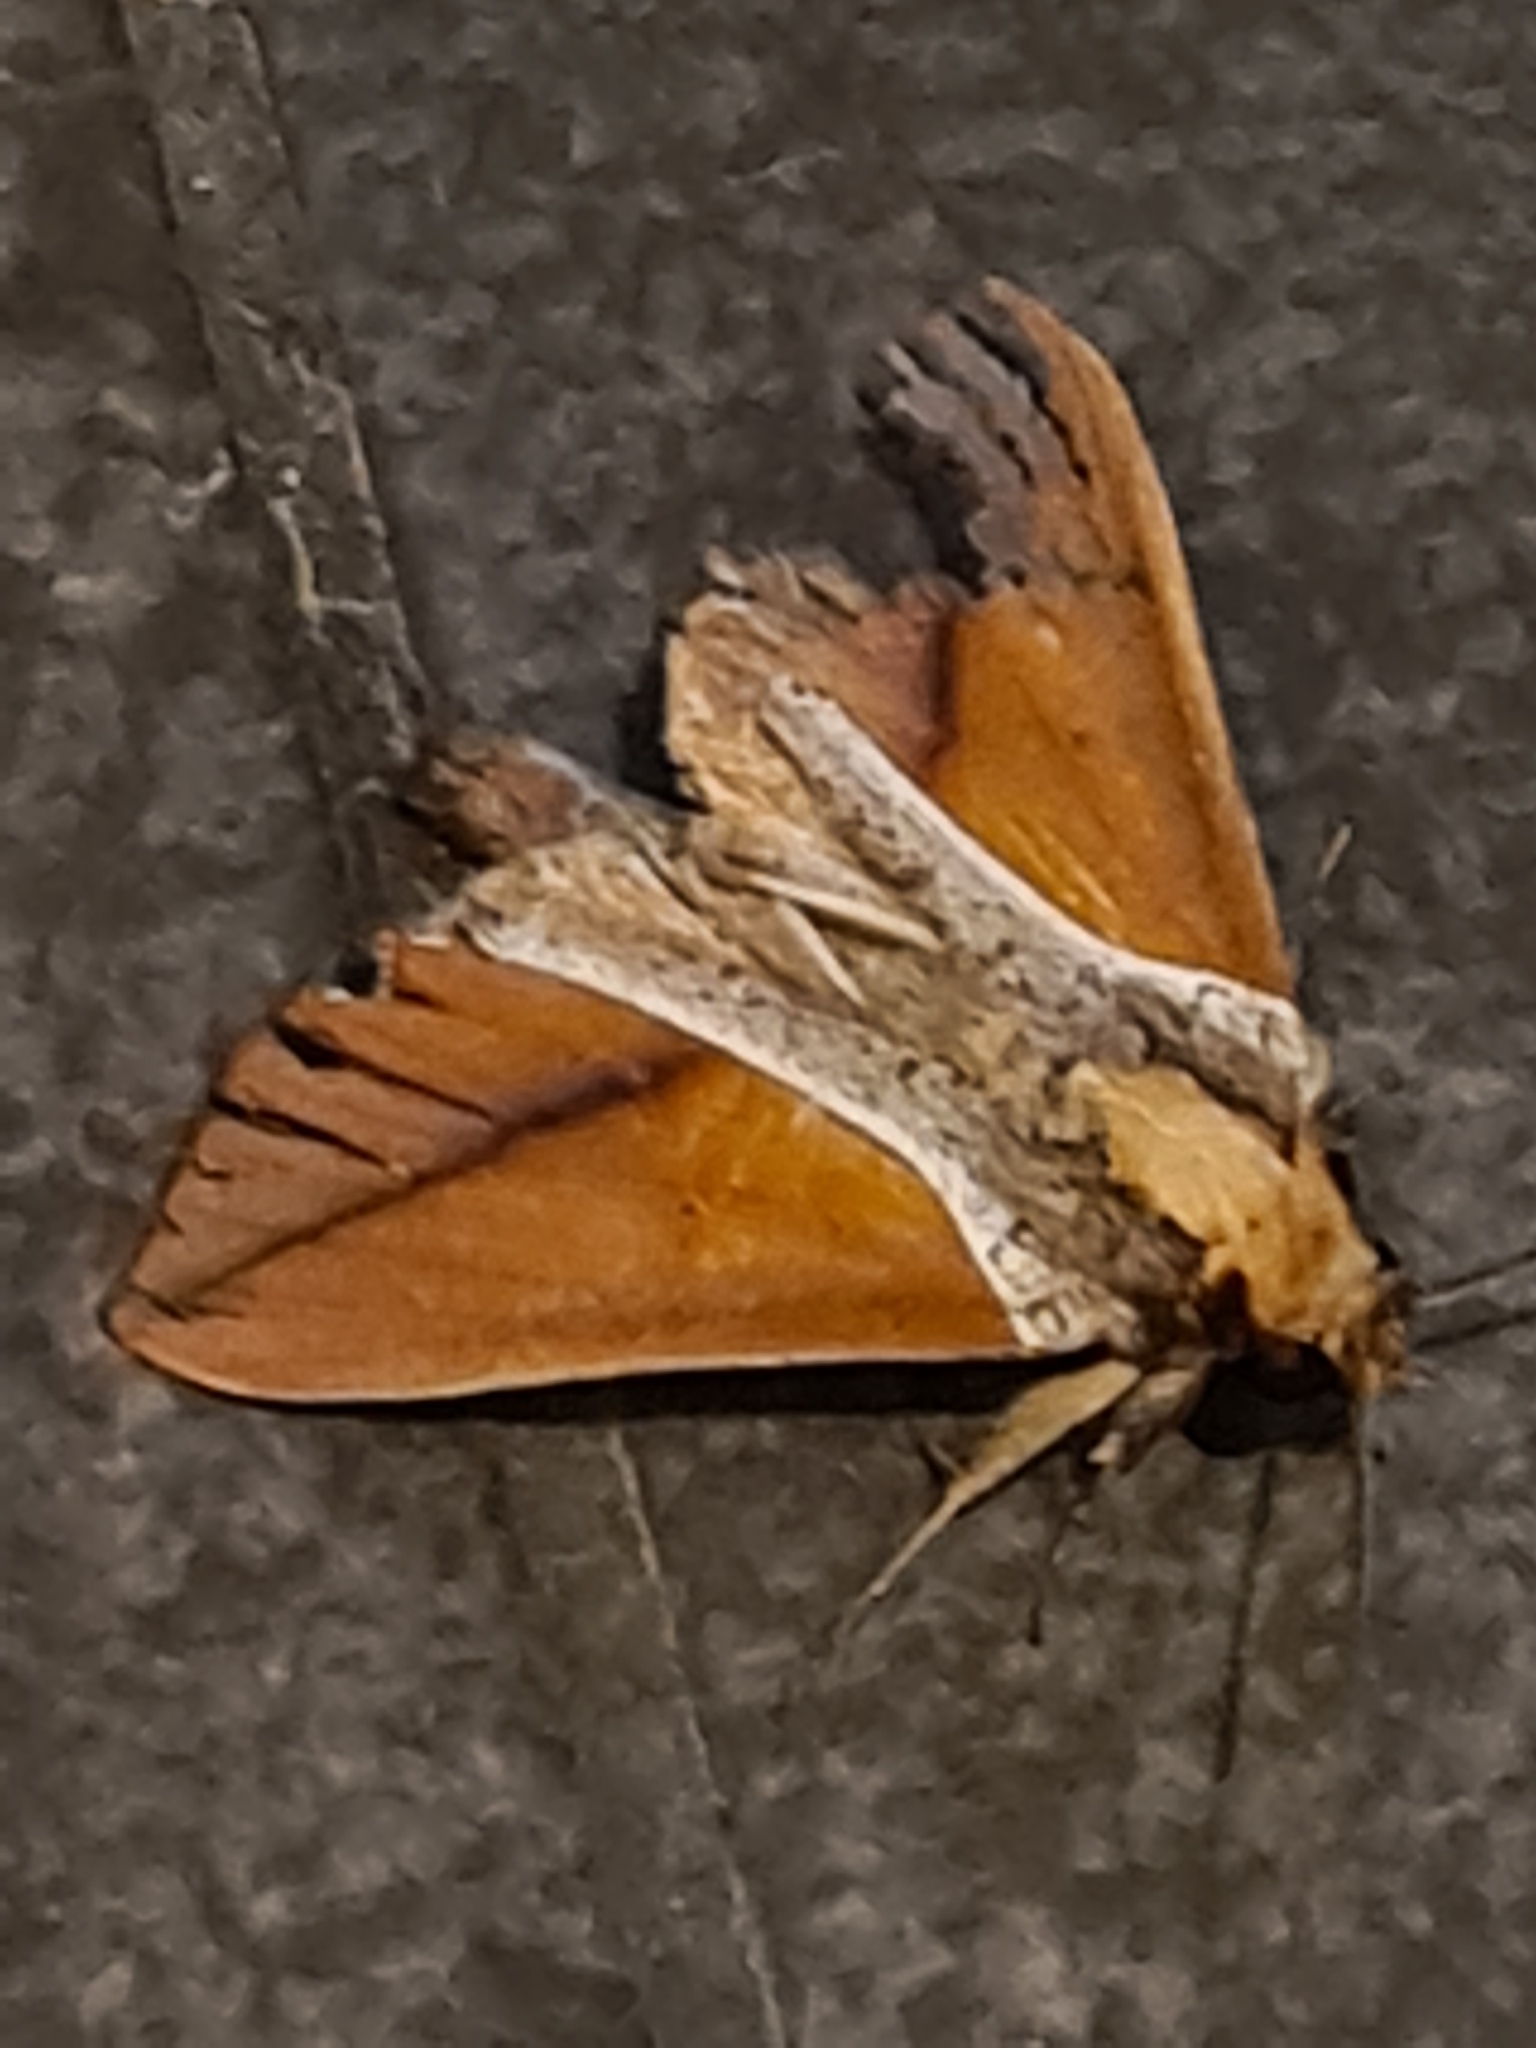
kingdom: Animalia
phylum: Arthropoda
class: Insecta
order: Lepidoptera
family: Notodontidae
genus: Strophocerus
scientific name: Strophocerus thermesia
